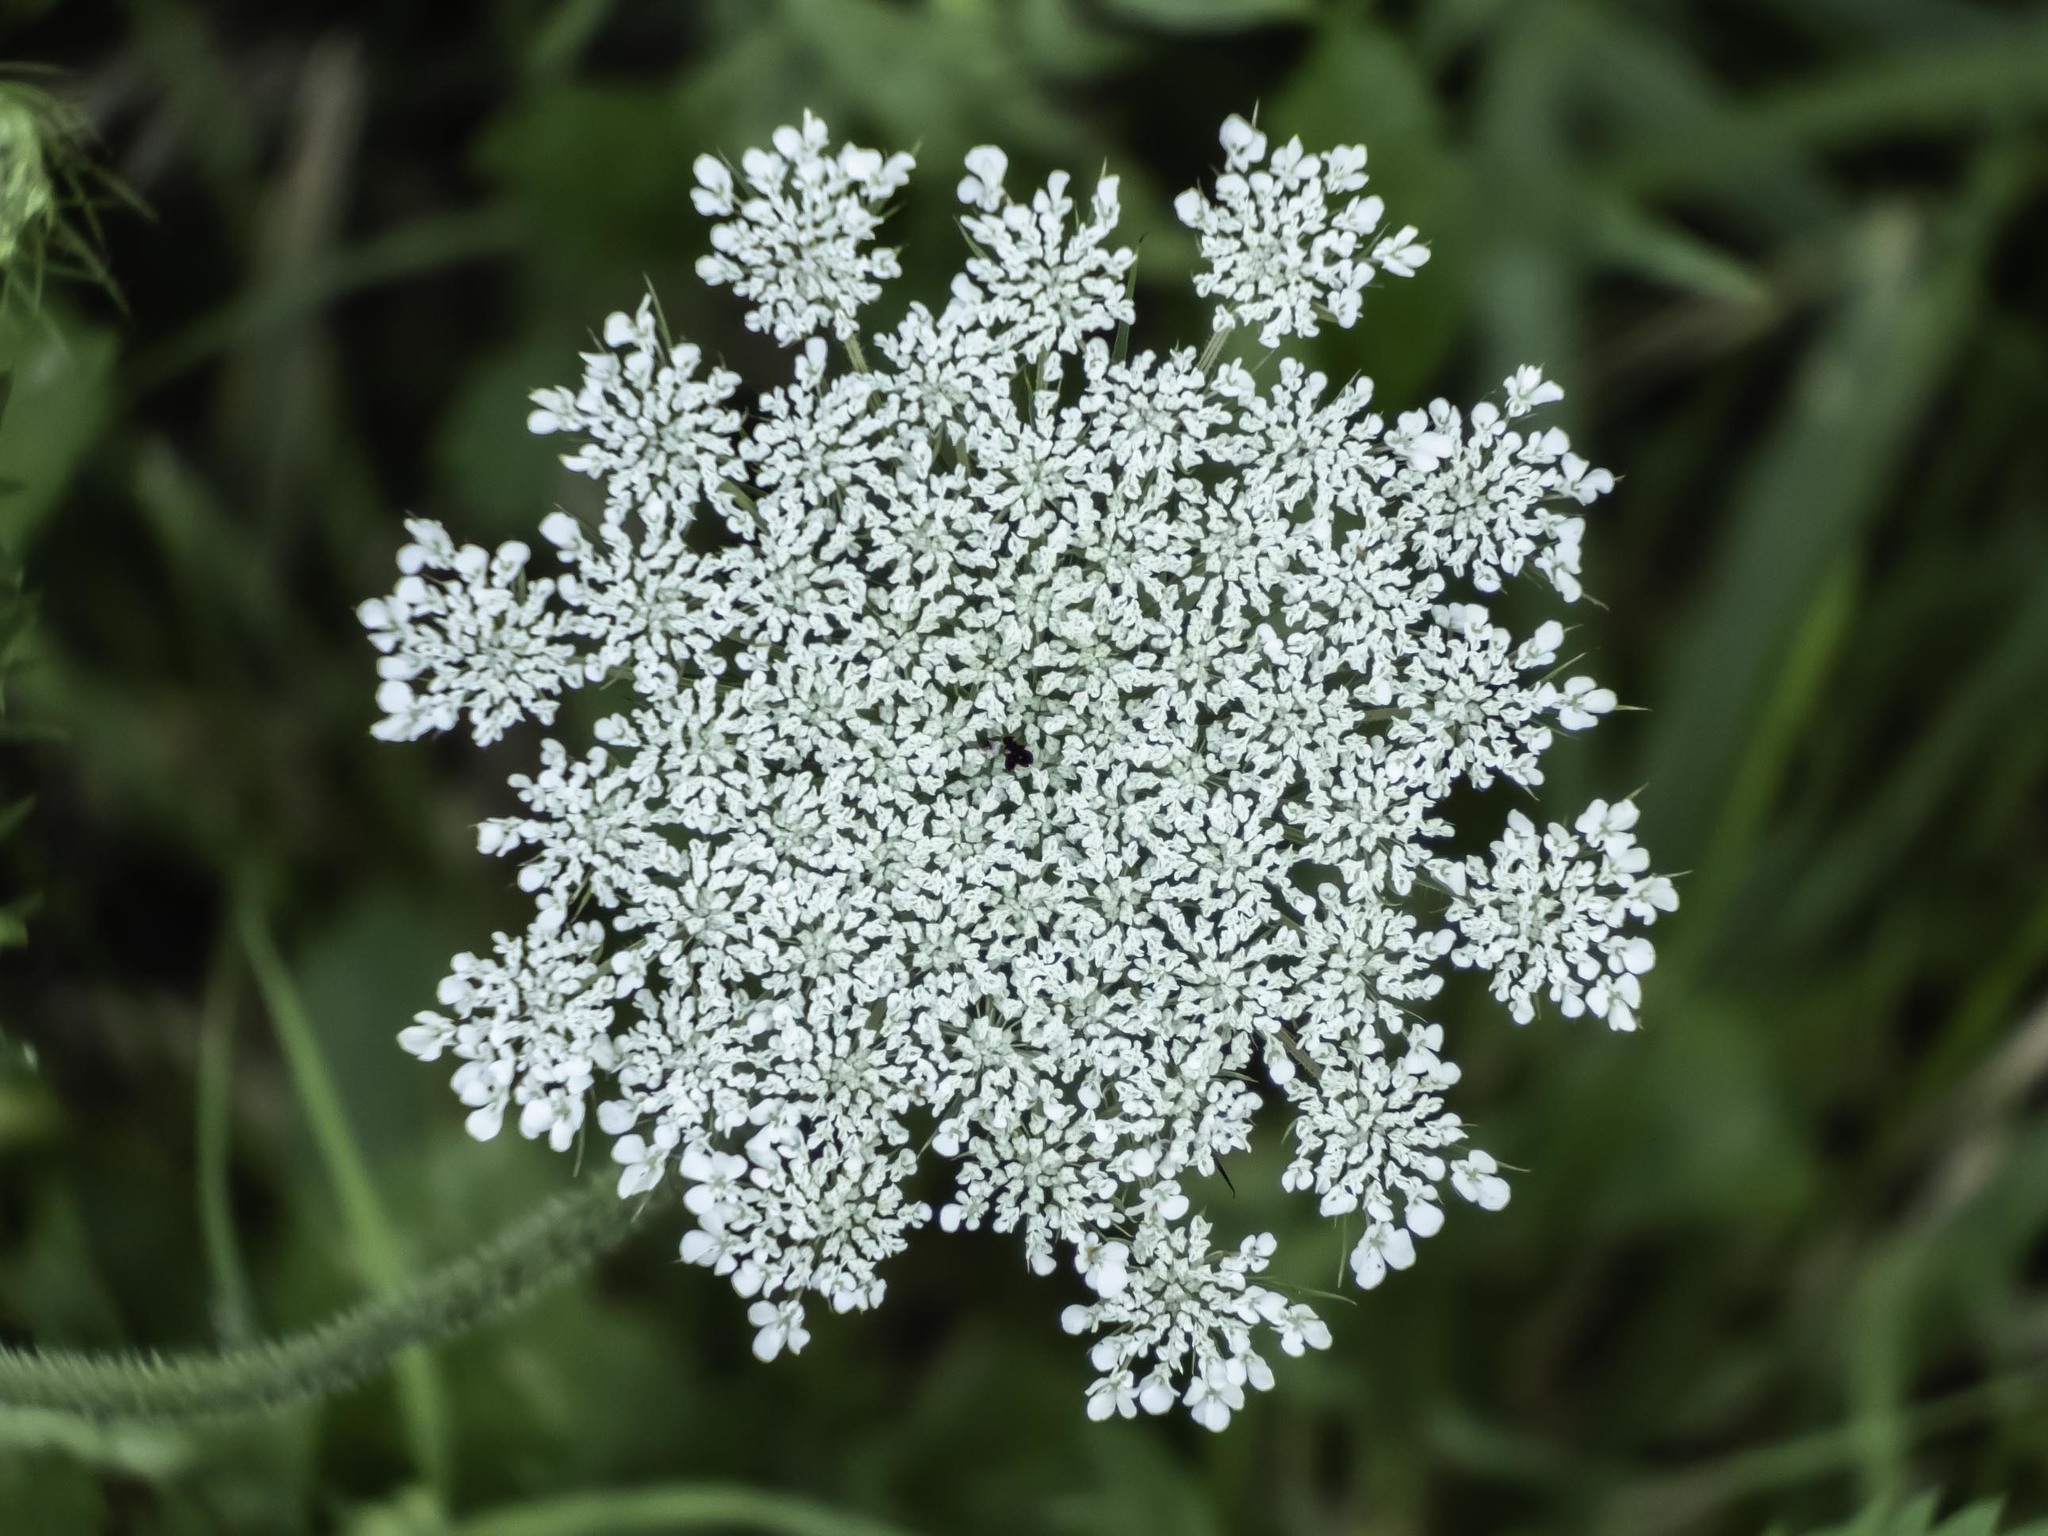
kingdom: Plantae
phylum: Tracheophyta
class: Magnoliopsida
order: Apiales
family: Apiaceae
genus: Daucus
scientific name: Daucus carota
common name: Wild carrot
